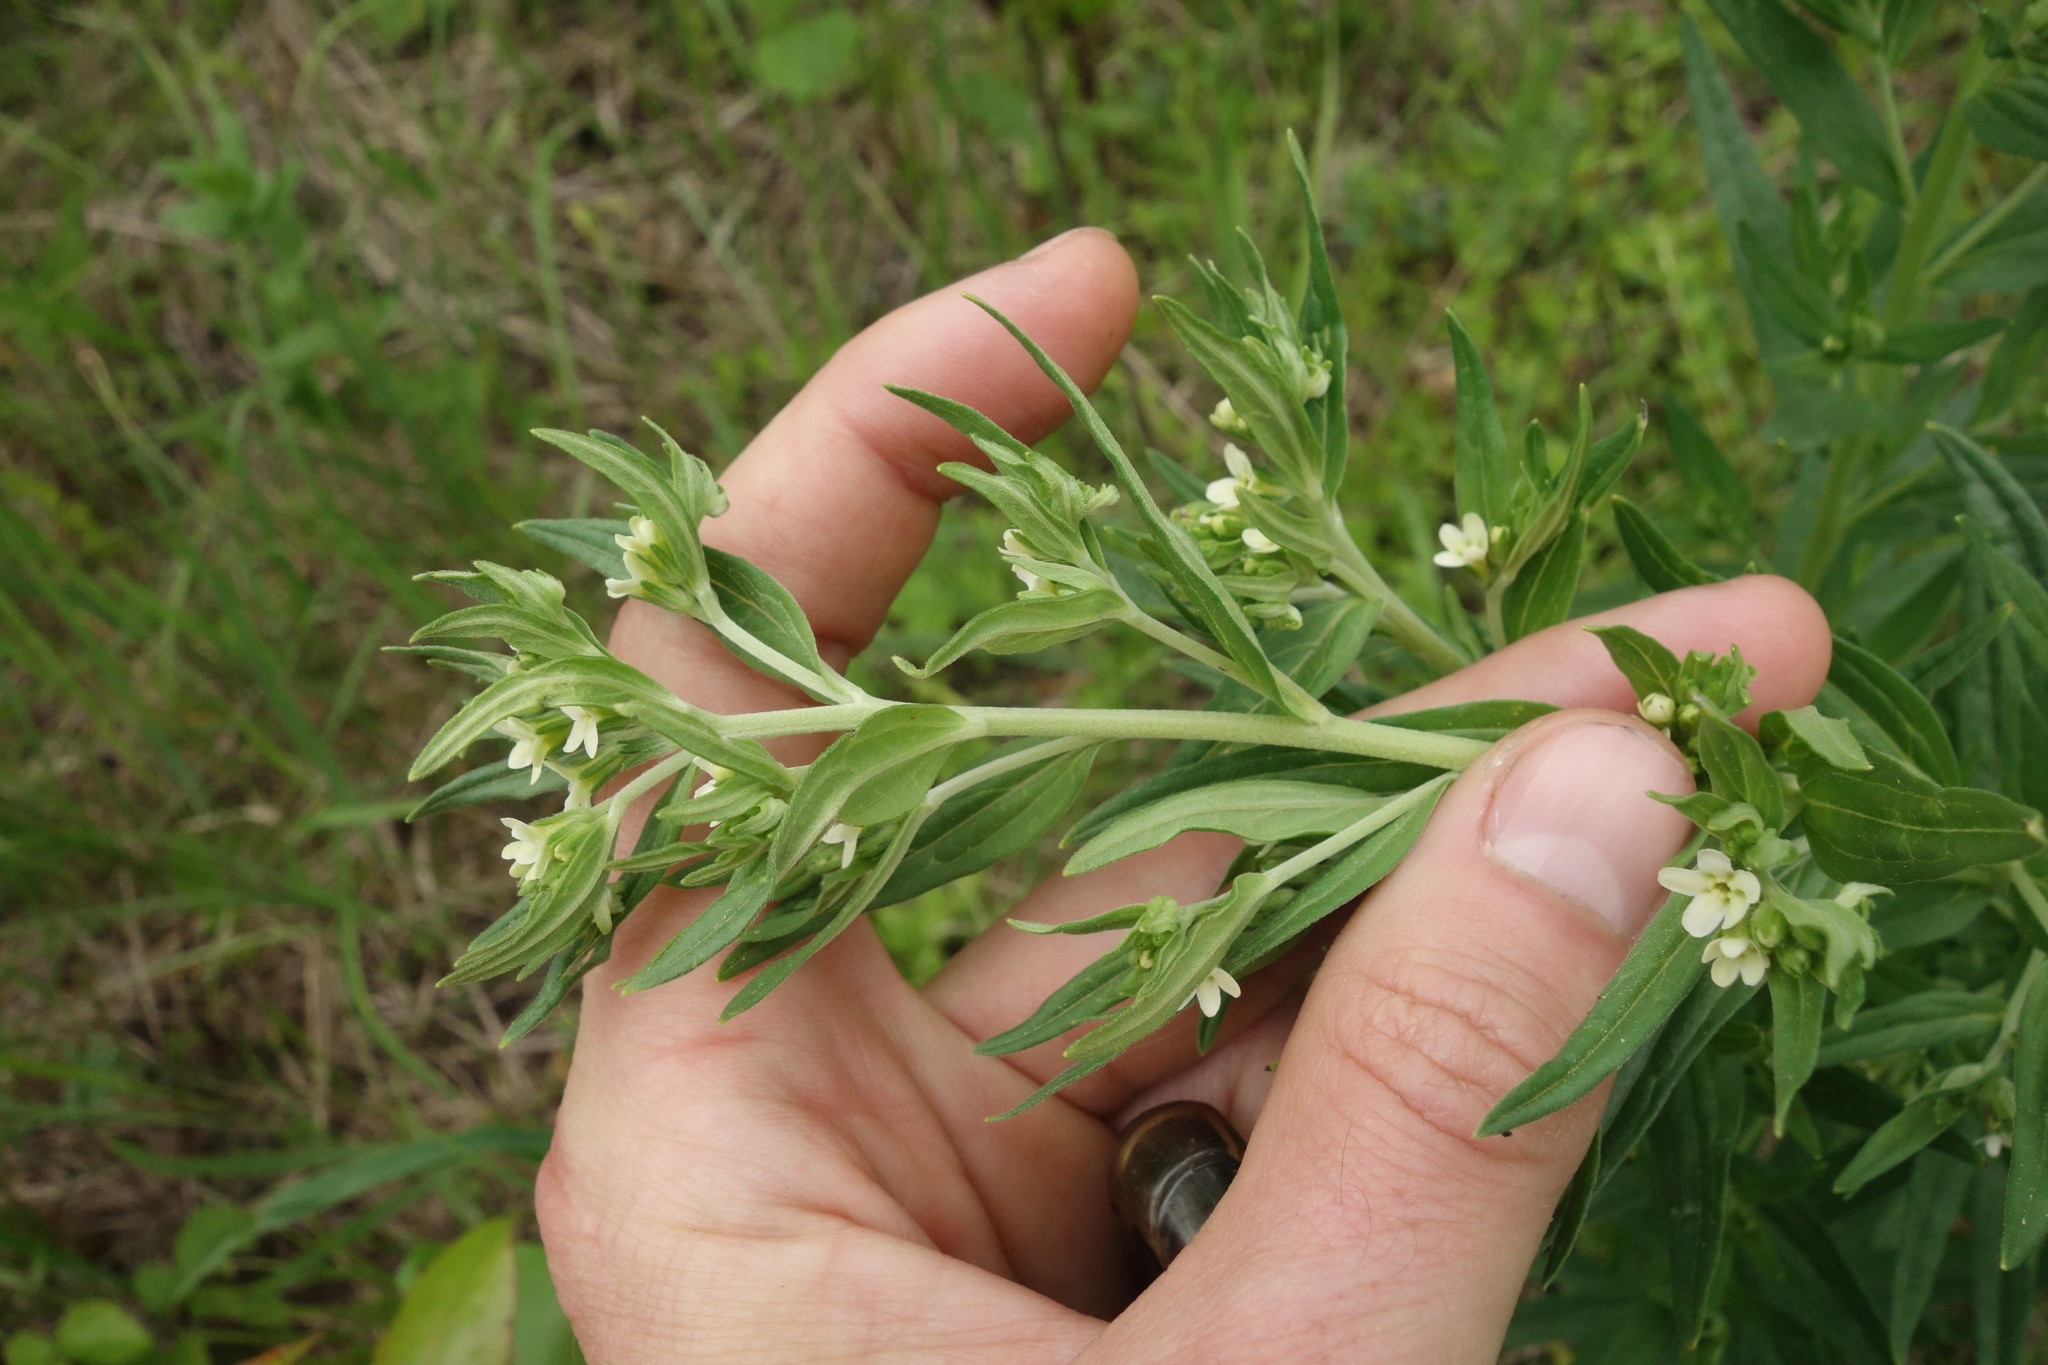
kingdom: Plantae
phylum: Tracheophyta
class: Magnoliopsida
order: Boraginales
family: Boraginaceae
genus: Lithospermum
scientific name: Lithospermum officinale
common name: Common gromwell
